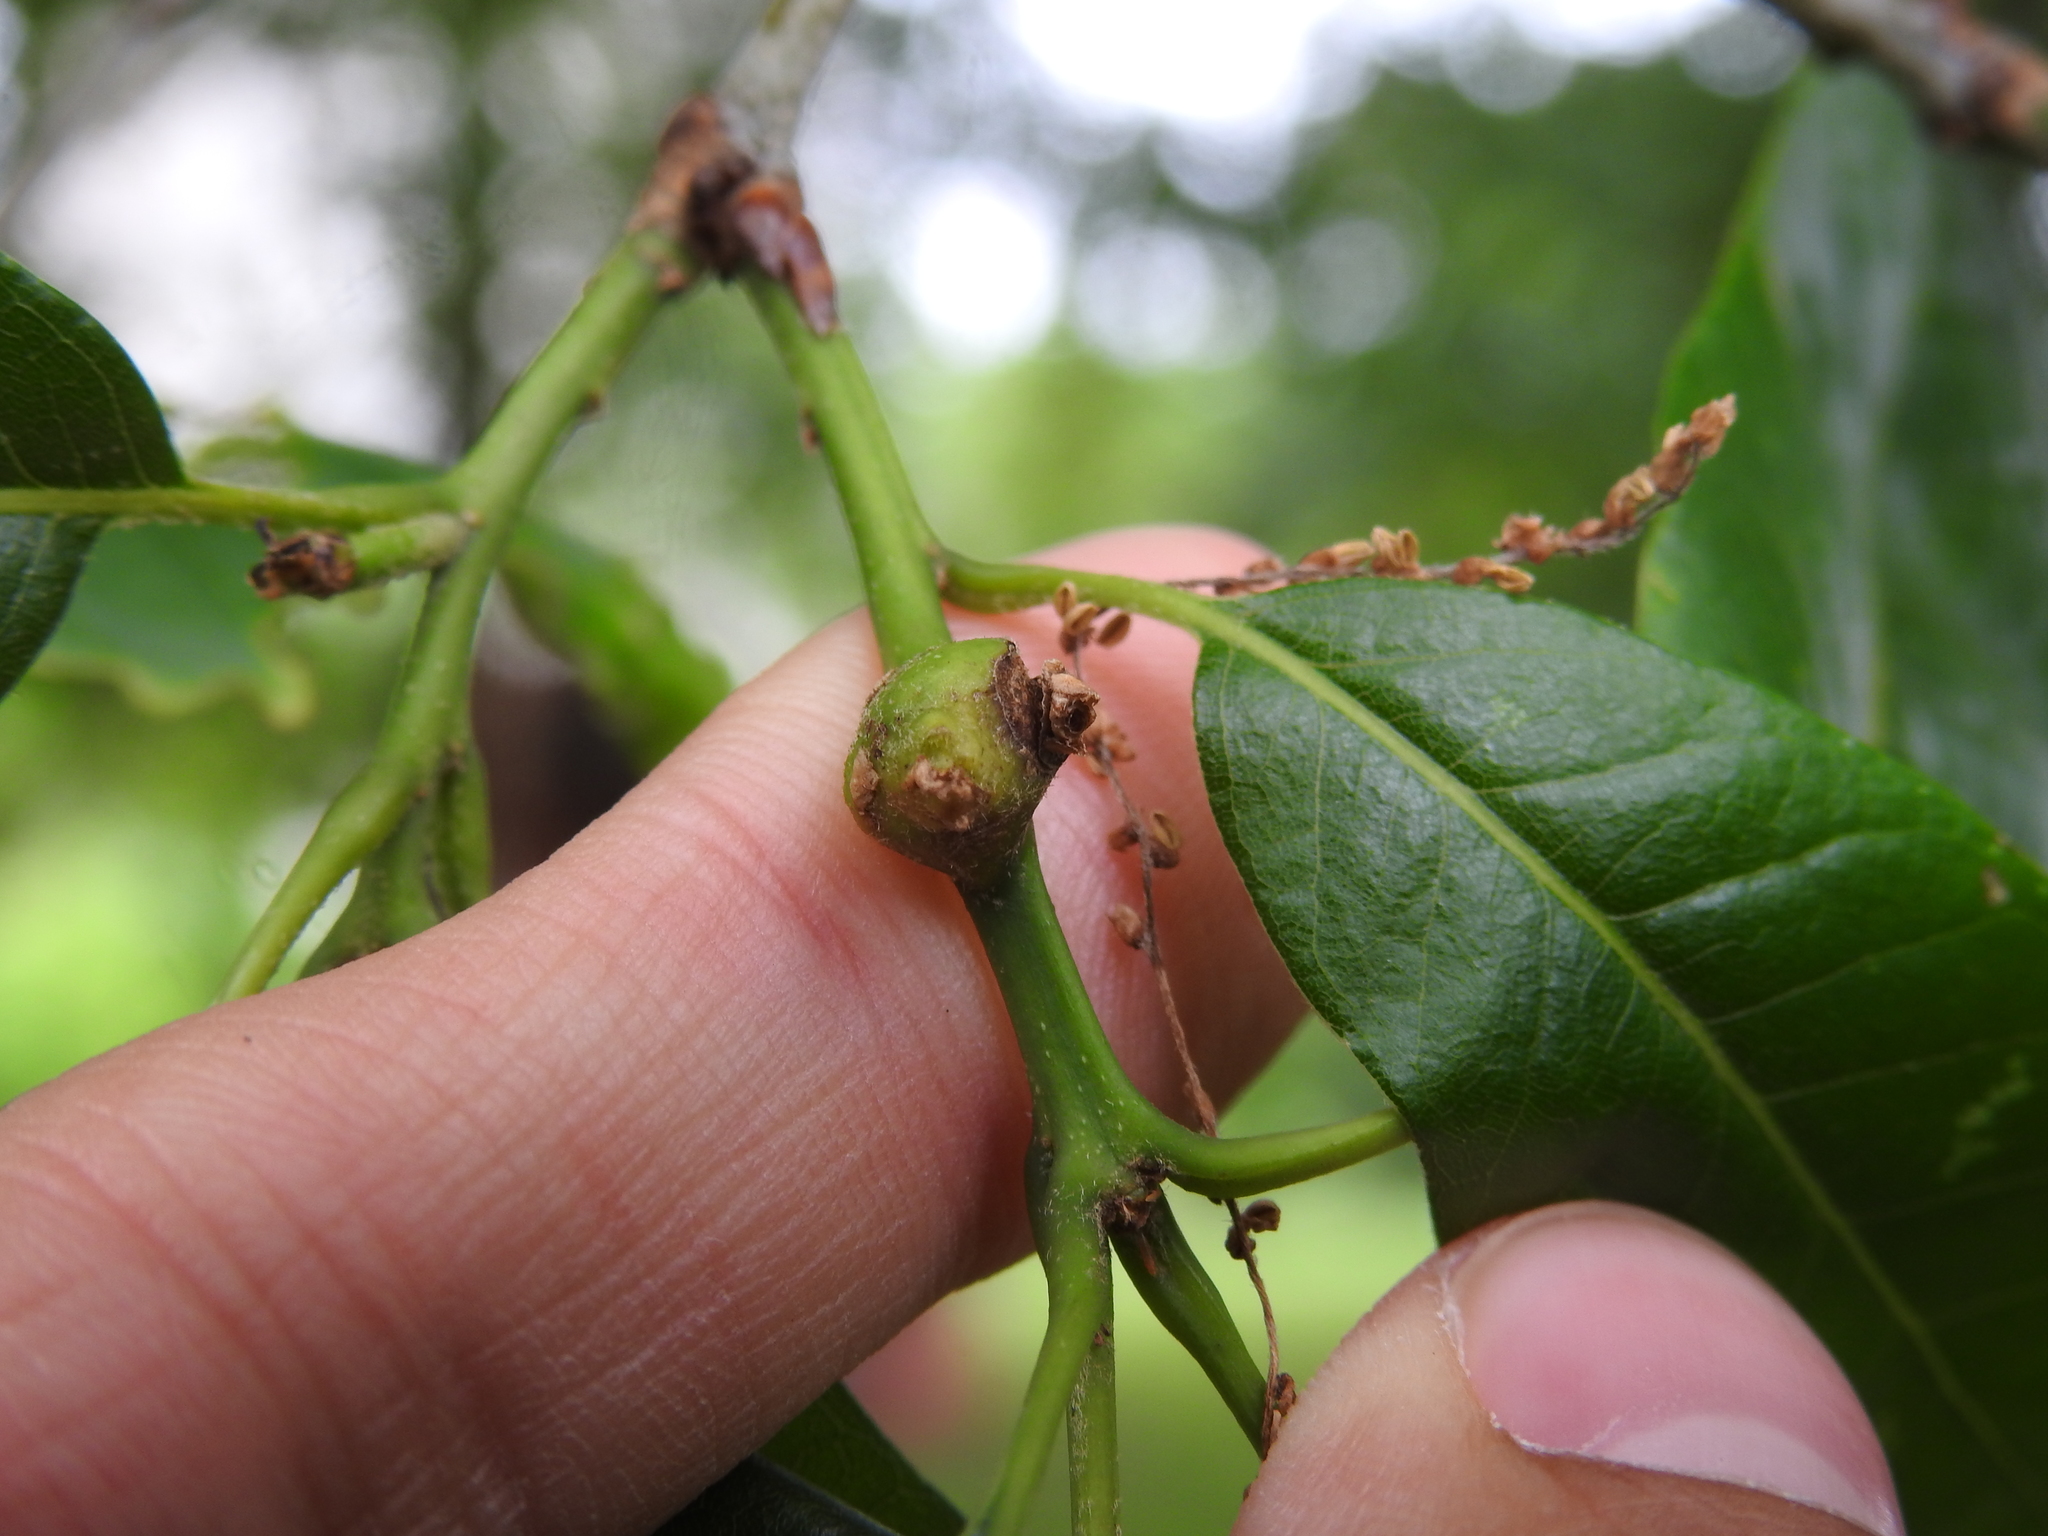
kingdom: Animalia
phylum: Arthropoda
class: Insecta
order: Hymenoptera
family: Cynipidae
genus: Zapatella
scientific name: Zapatella quercusphellos
